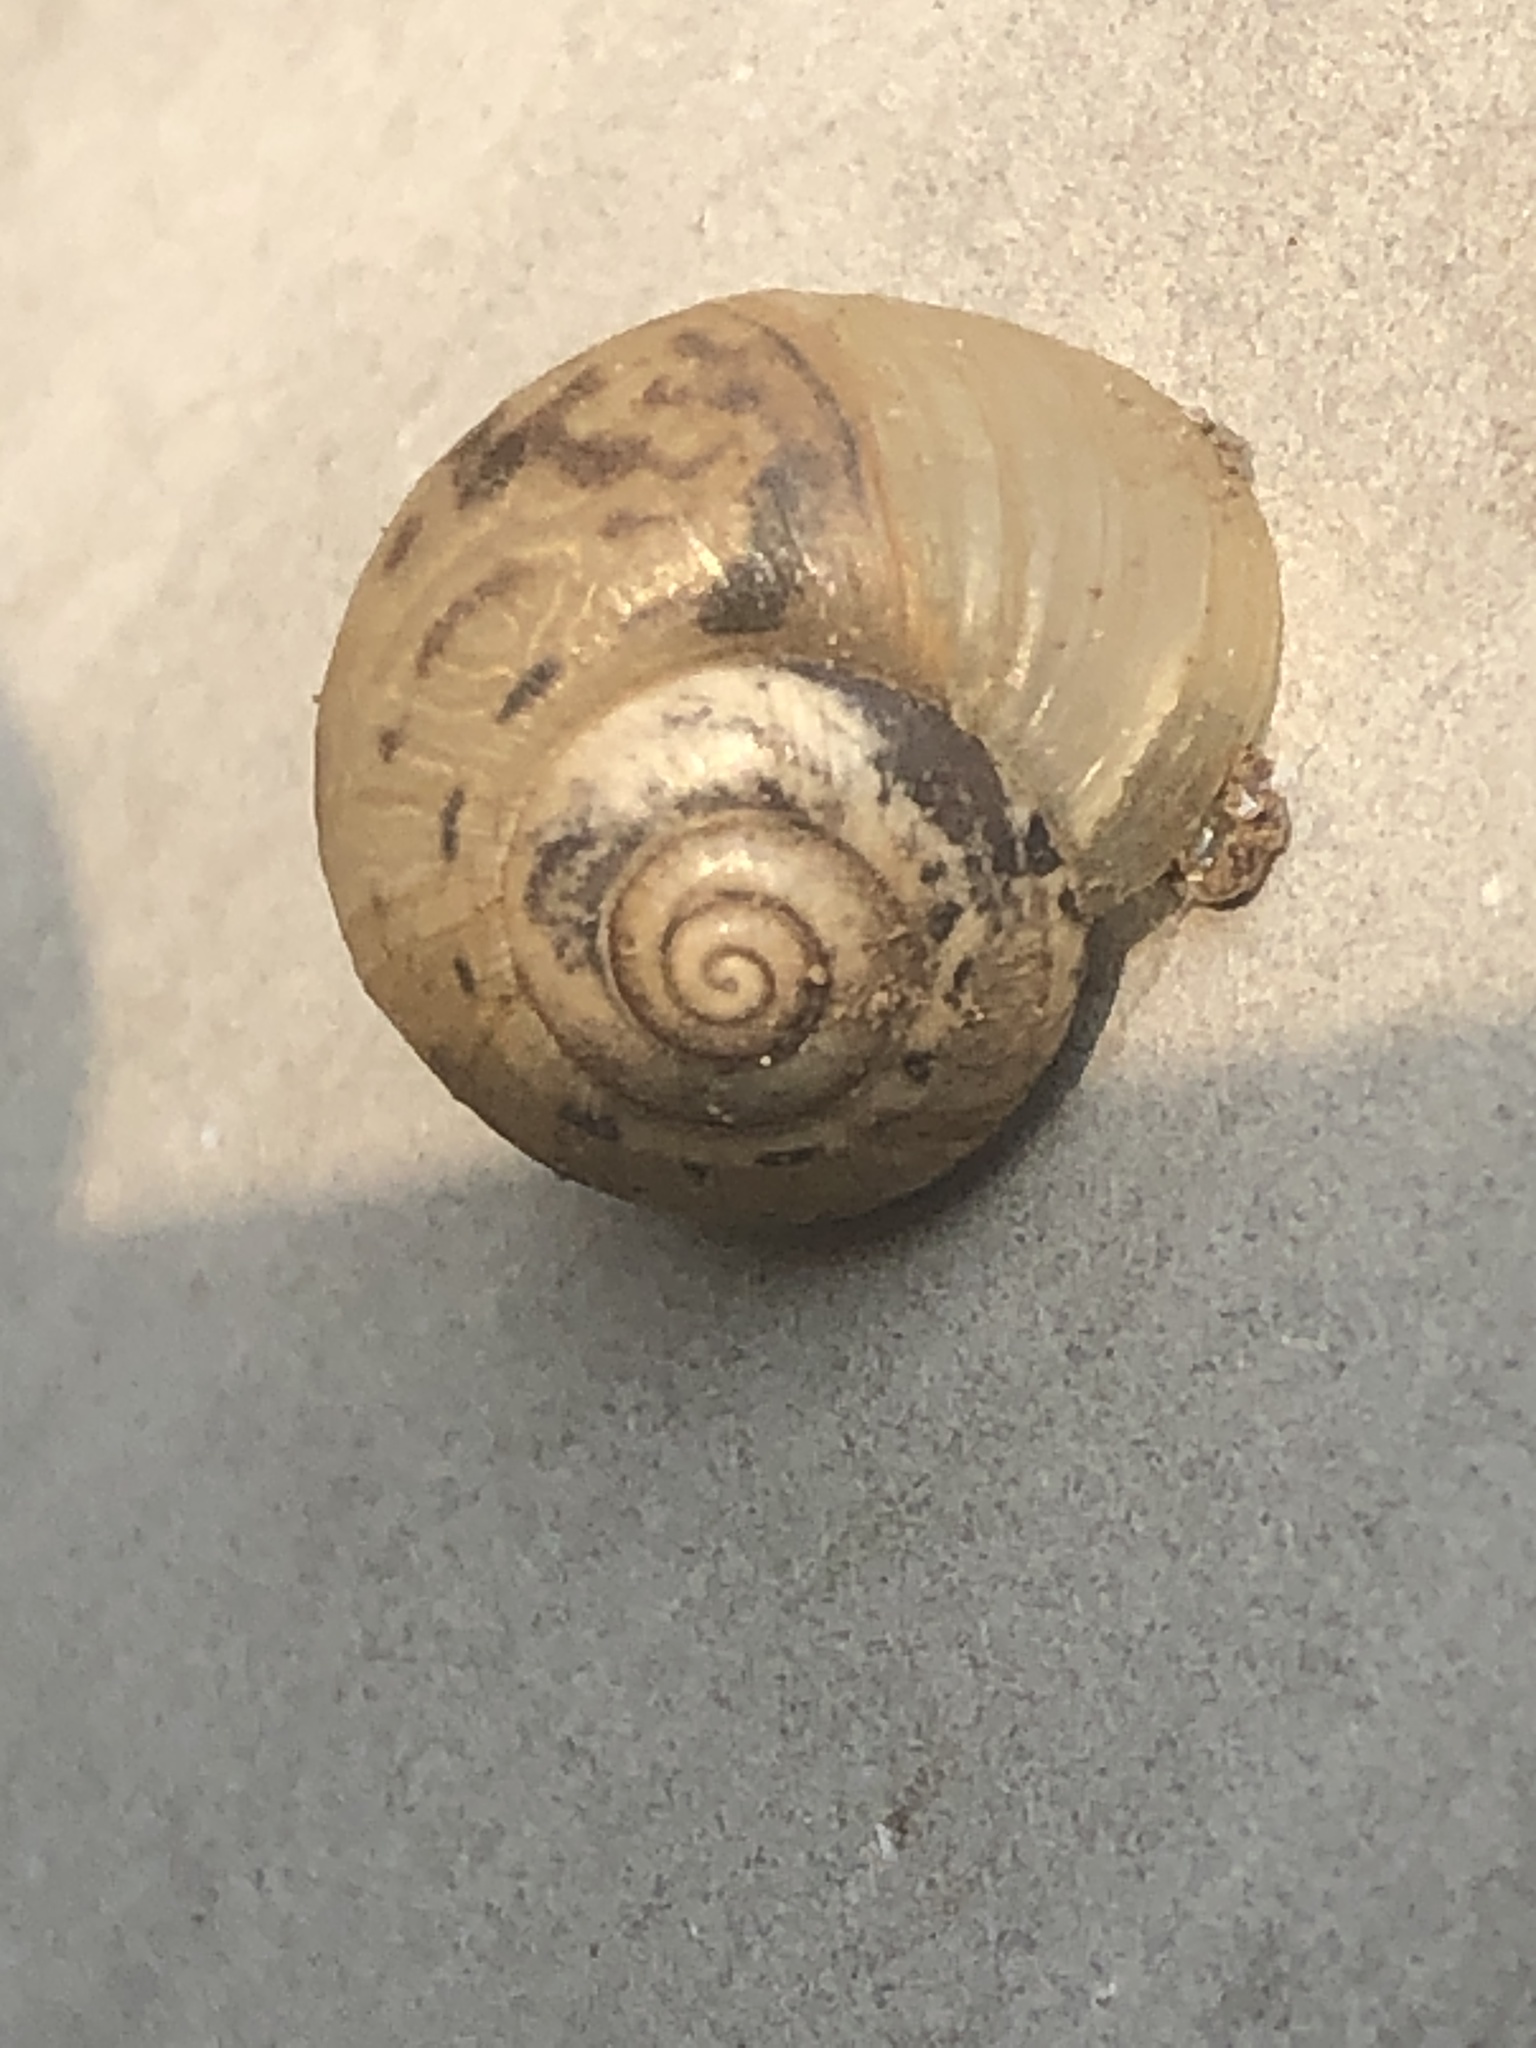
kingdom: Animalia
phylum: Mollusca
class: Gastropoda
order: Stylommatophora
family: Camaenidae
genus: Acusta
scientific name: Acusta redfieldi
